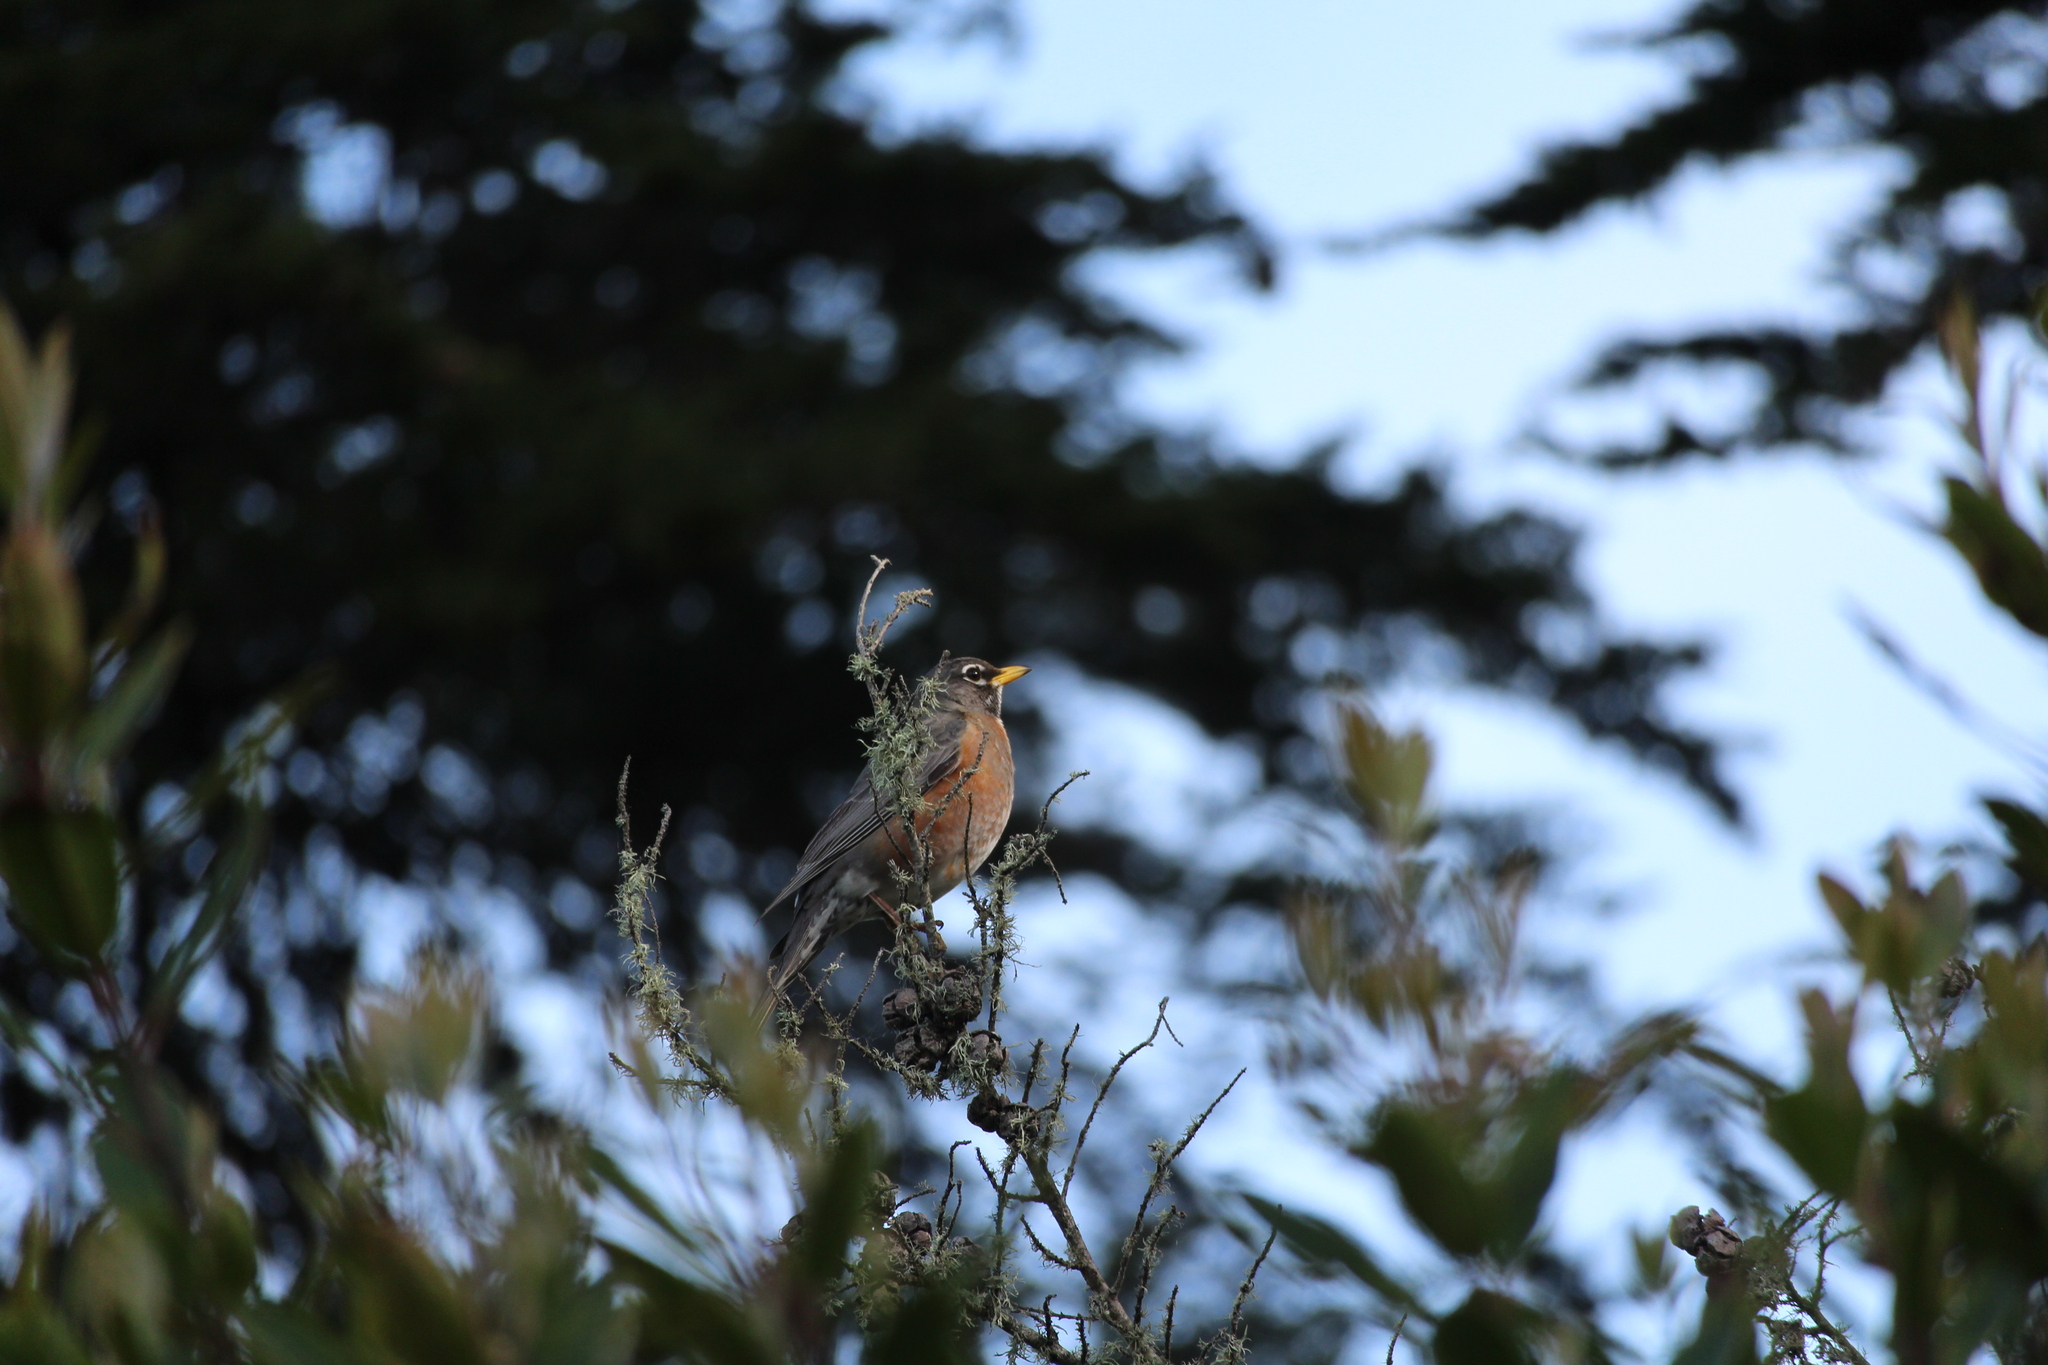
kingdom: Animalia
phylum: Chordata
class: Aves
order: Passeriformes
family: Turdidae
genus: Turdus
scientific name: Turdus migratorius
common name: American robin
